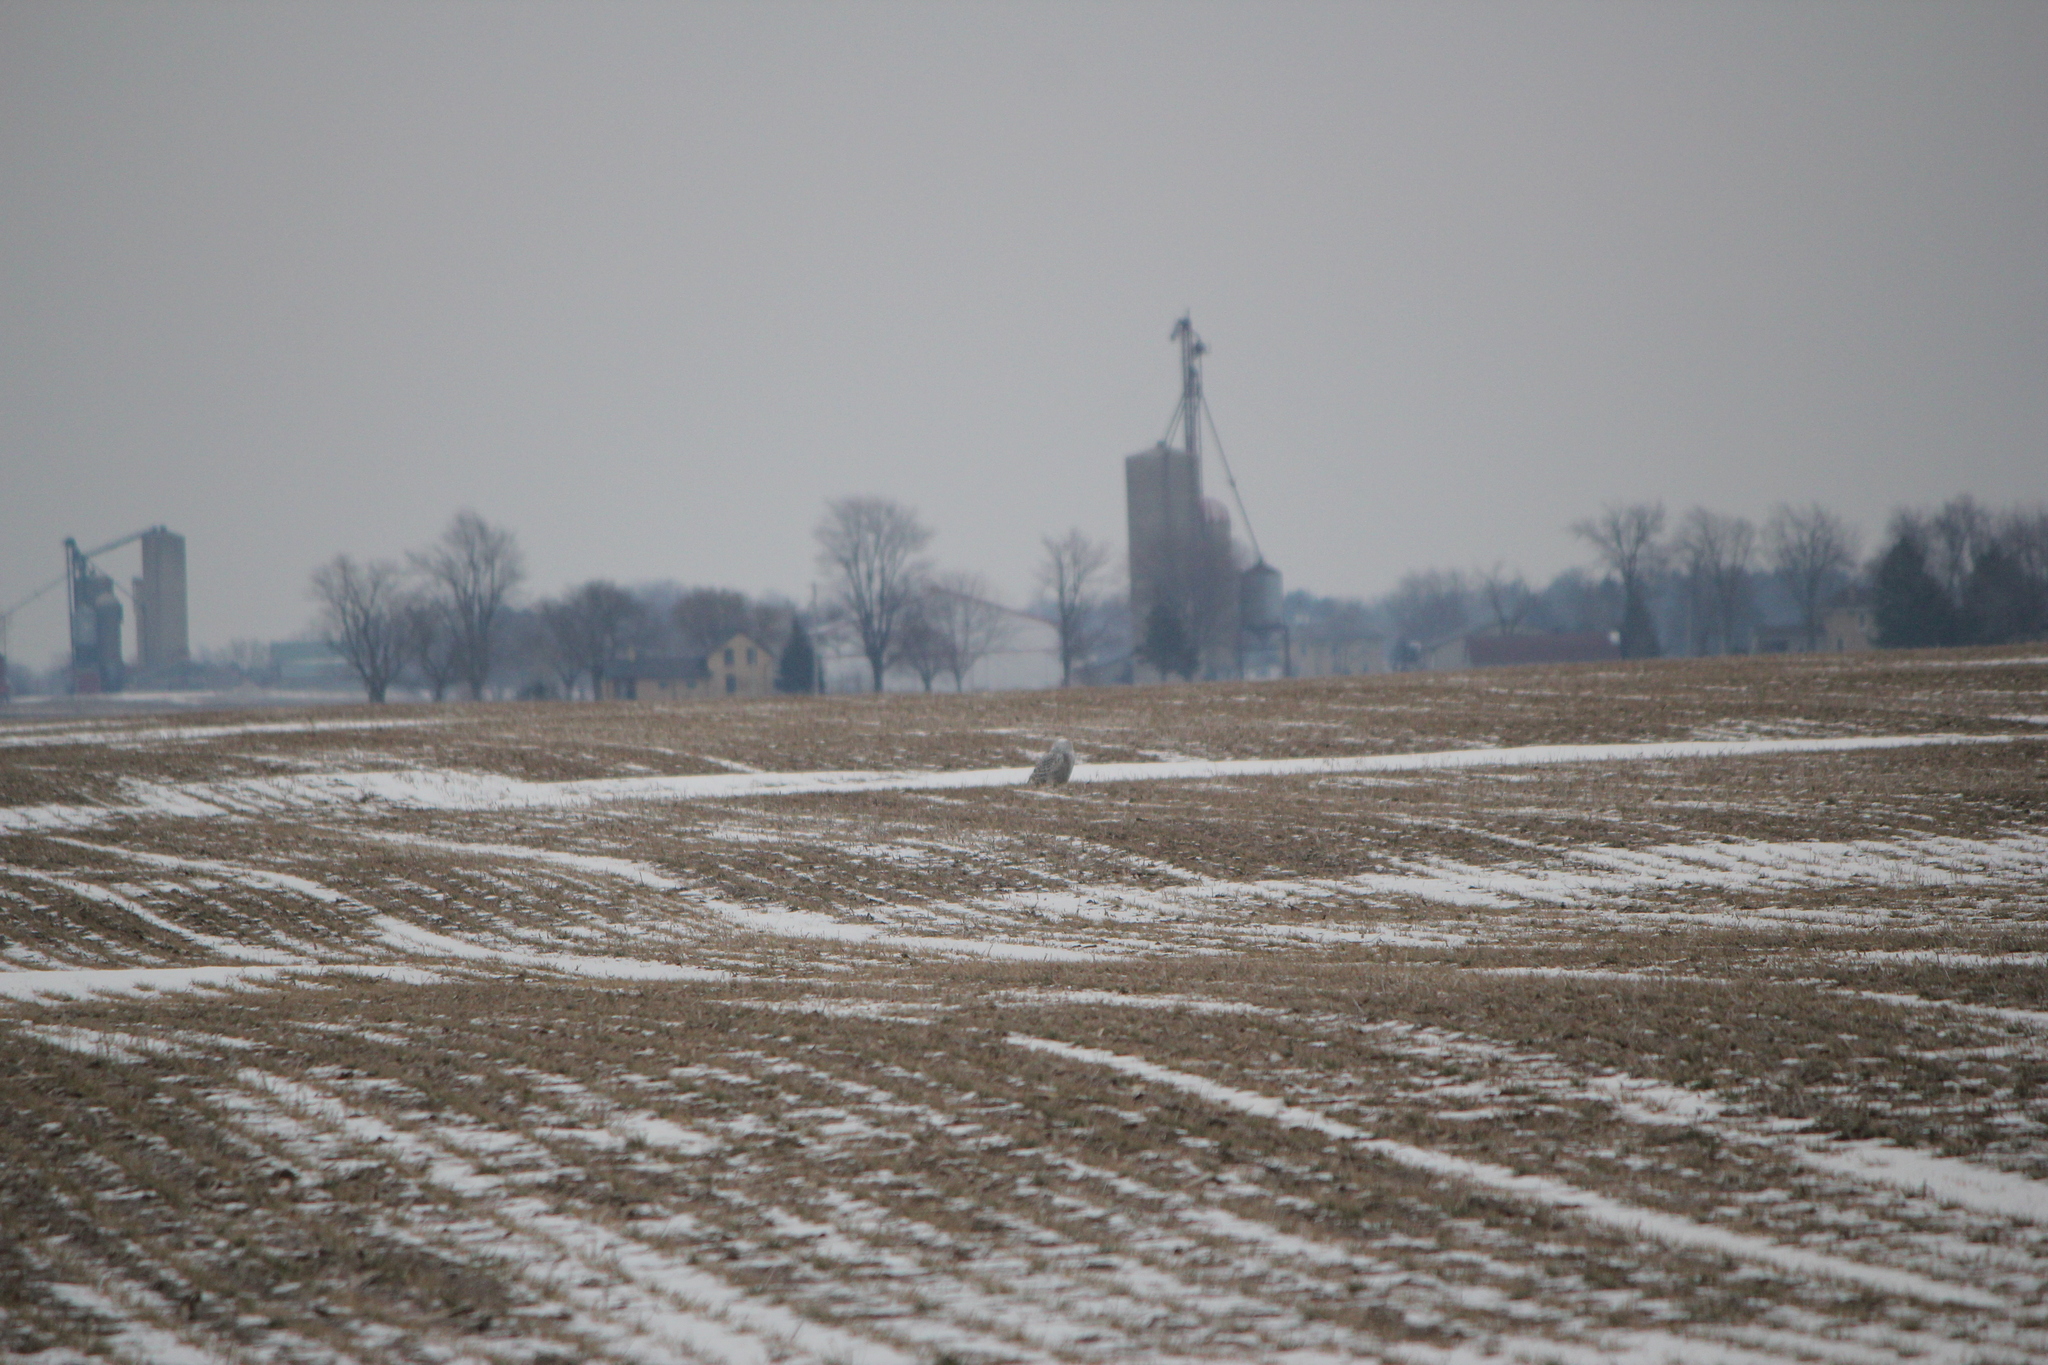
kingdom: Animalia
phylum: Chordata
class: Aves
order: Strigiformes
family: Strigidae
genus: Bubo
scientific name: Bubo scandiacus
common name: Snowy owl
